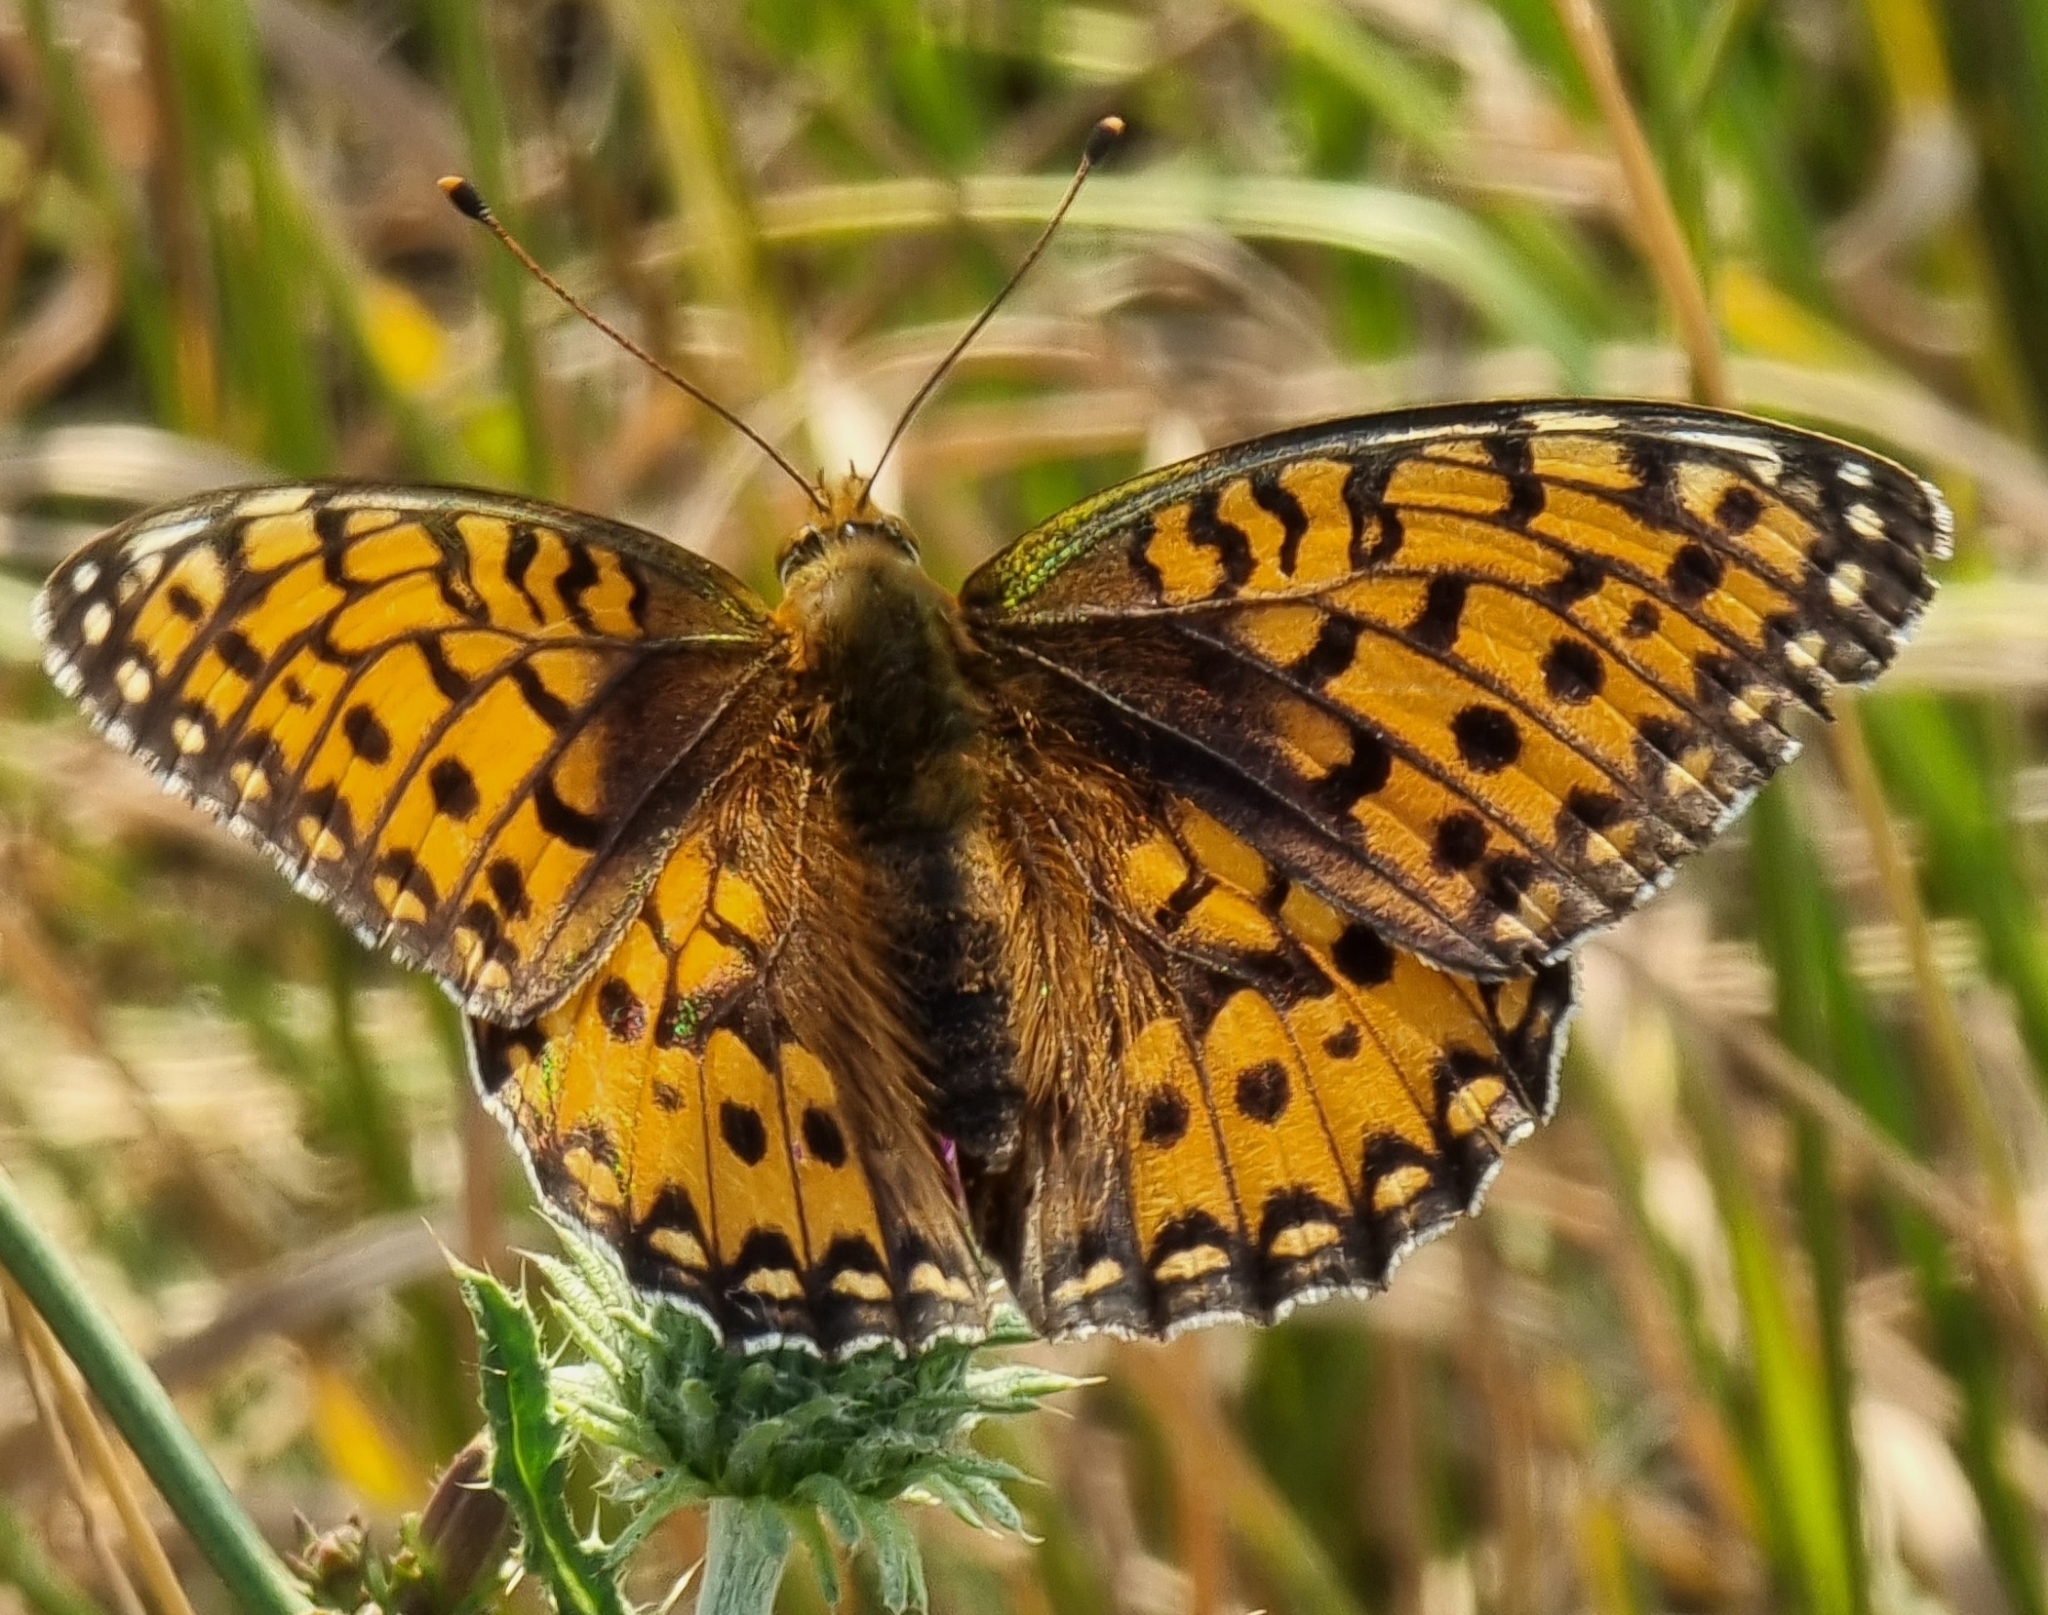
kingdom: Animalia
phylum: Arthropoda
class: Insecta
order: Lepidoptera
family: Nymphalidae
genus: Speyeria
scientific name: Speyeria aglaja
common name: Dark green fritillary
